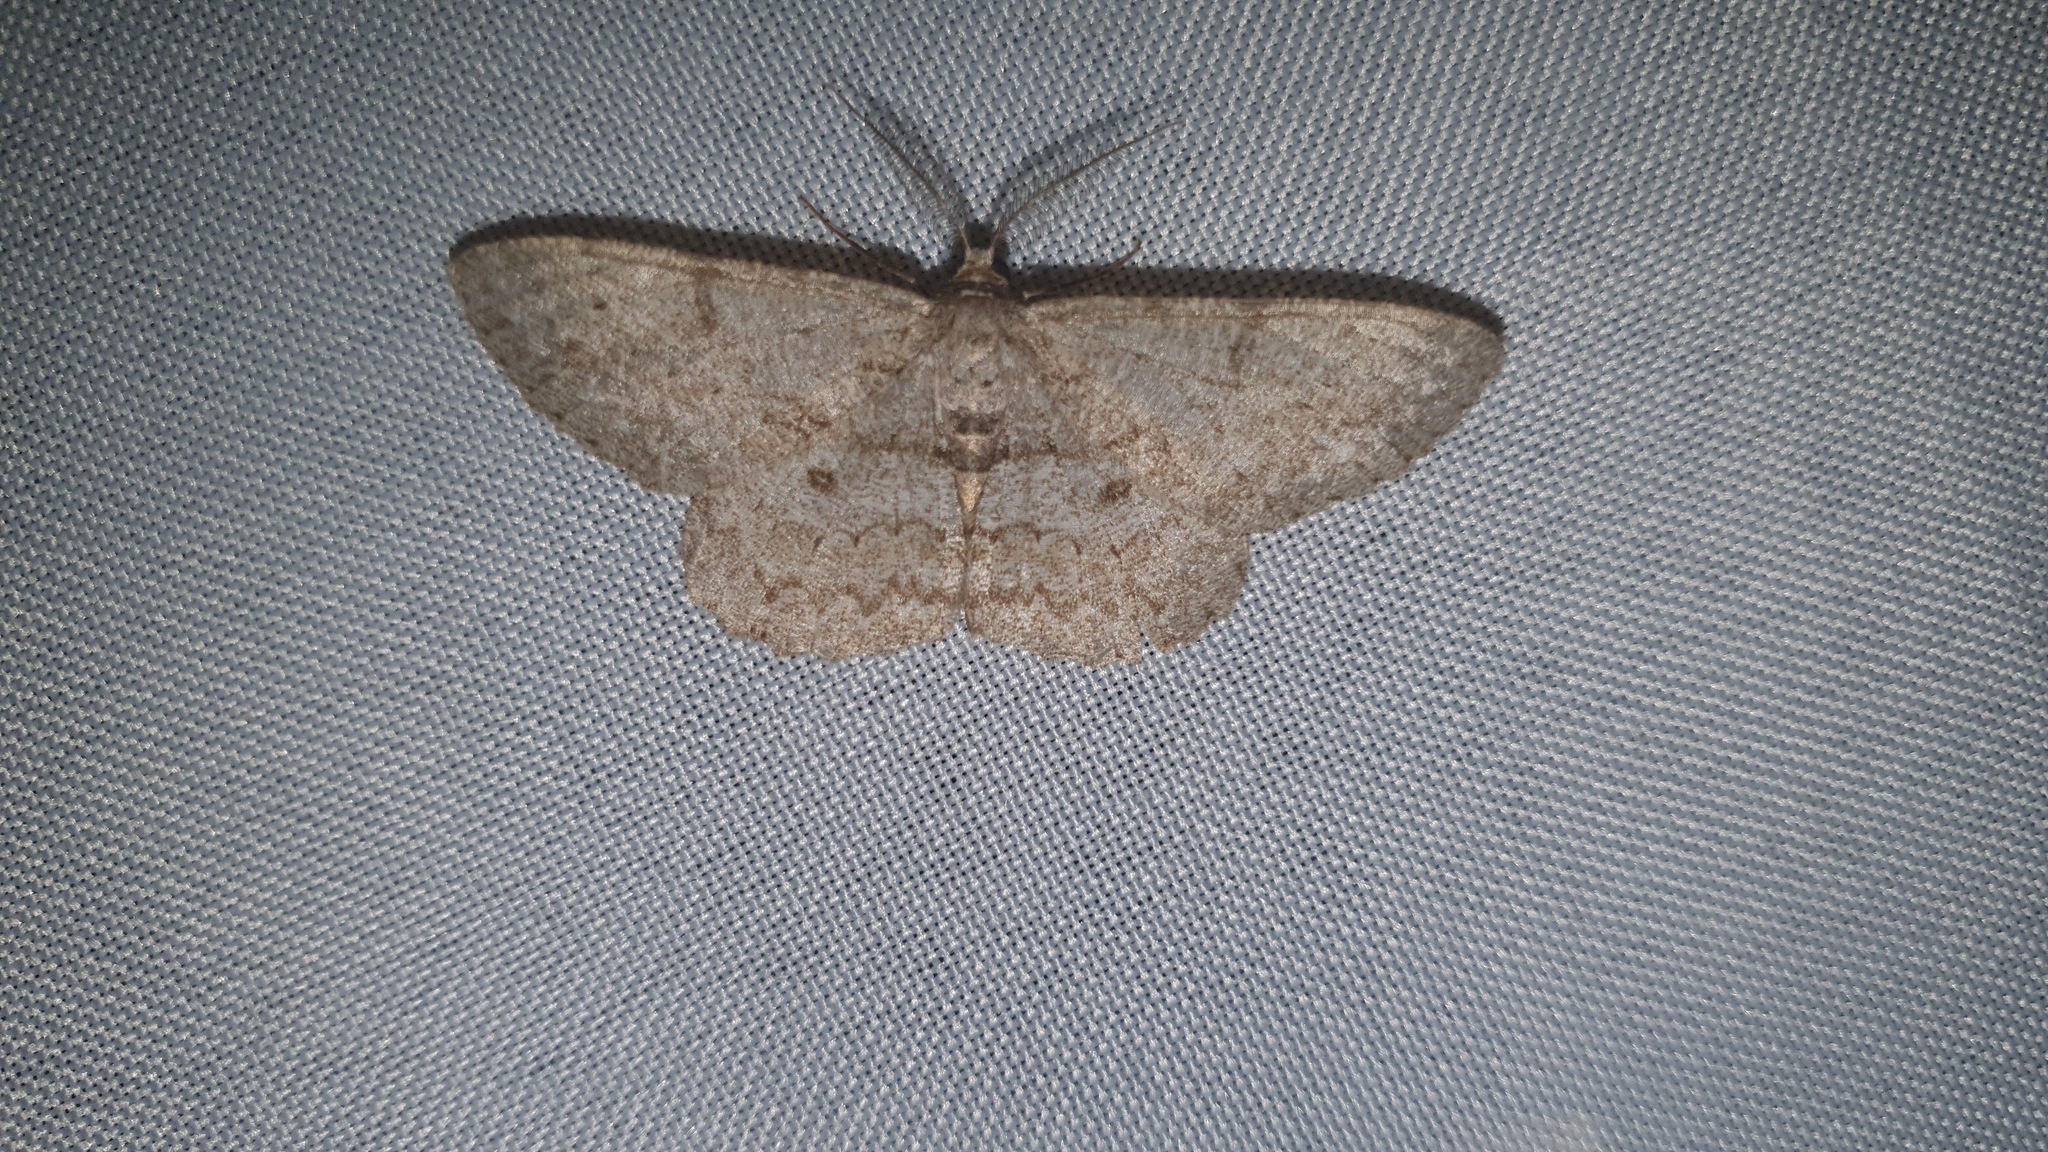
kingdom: Animalia
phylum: Arthropoda
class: Insecta
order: Lepidoptera
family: Geometridae
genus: Hypomecis
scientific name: Hypomecis punctinalis
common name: Pale oak beauty
